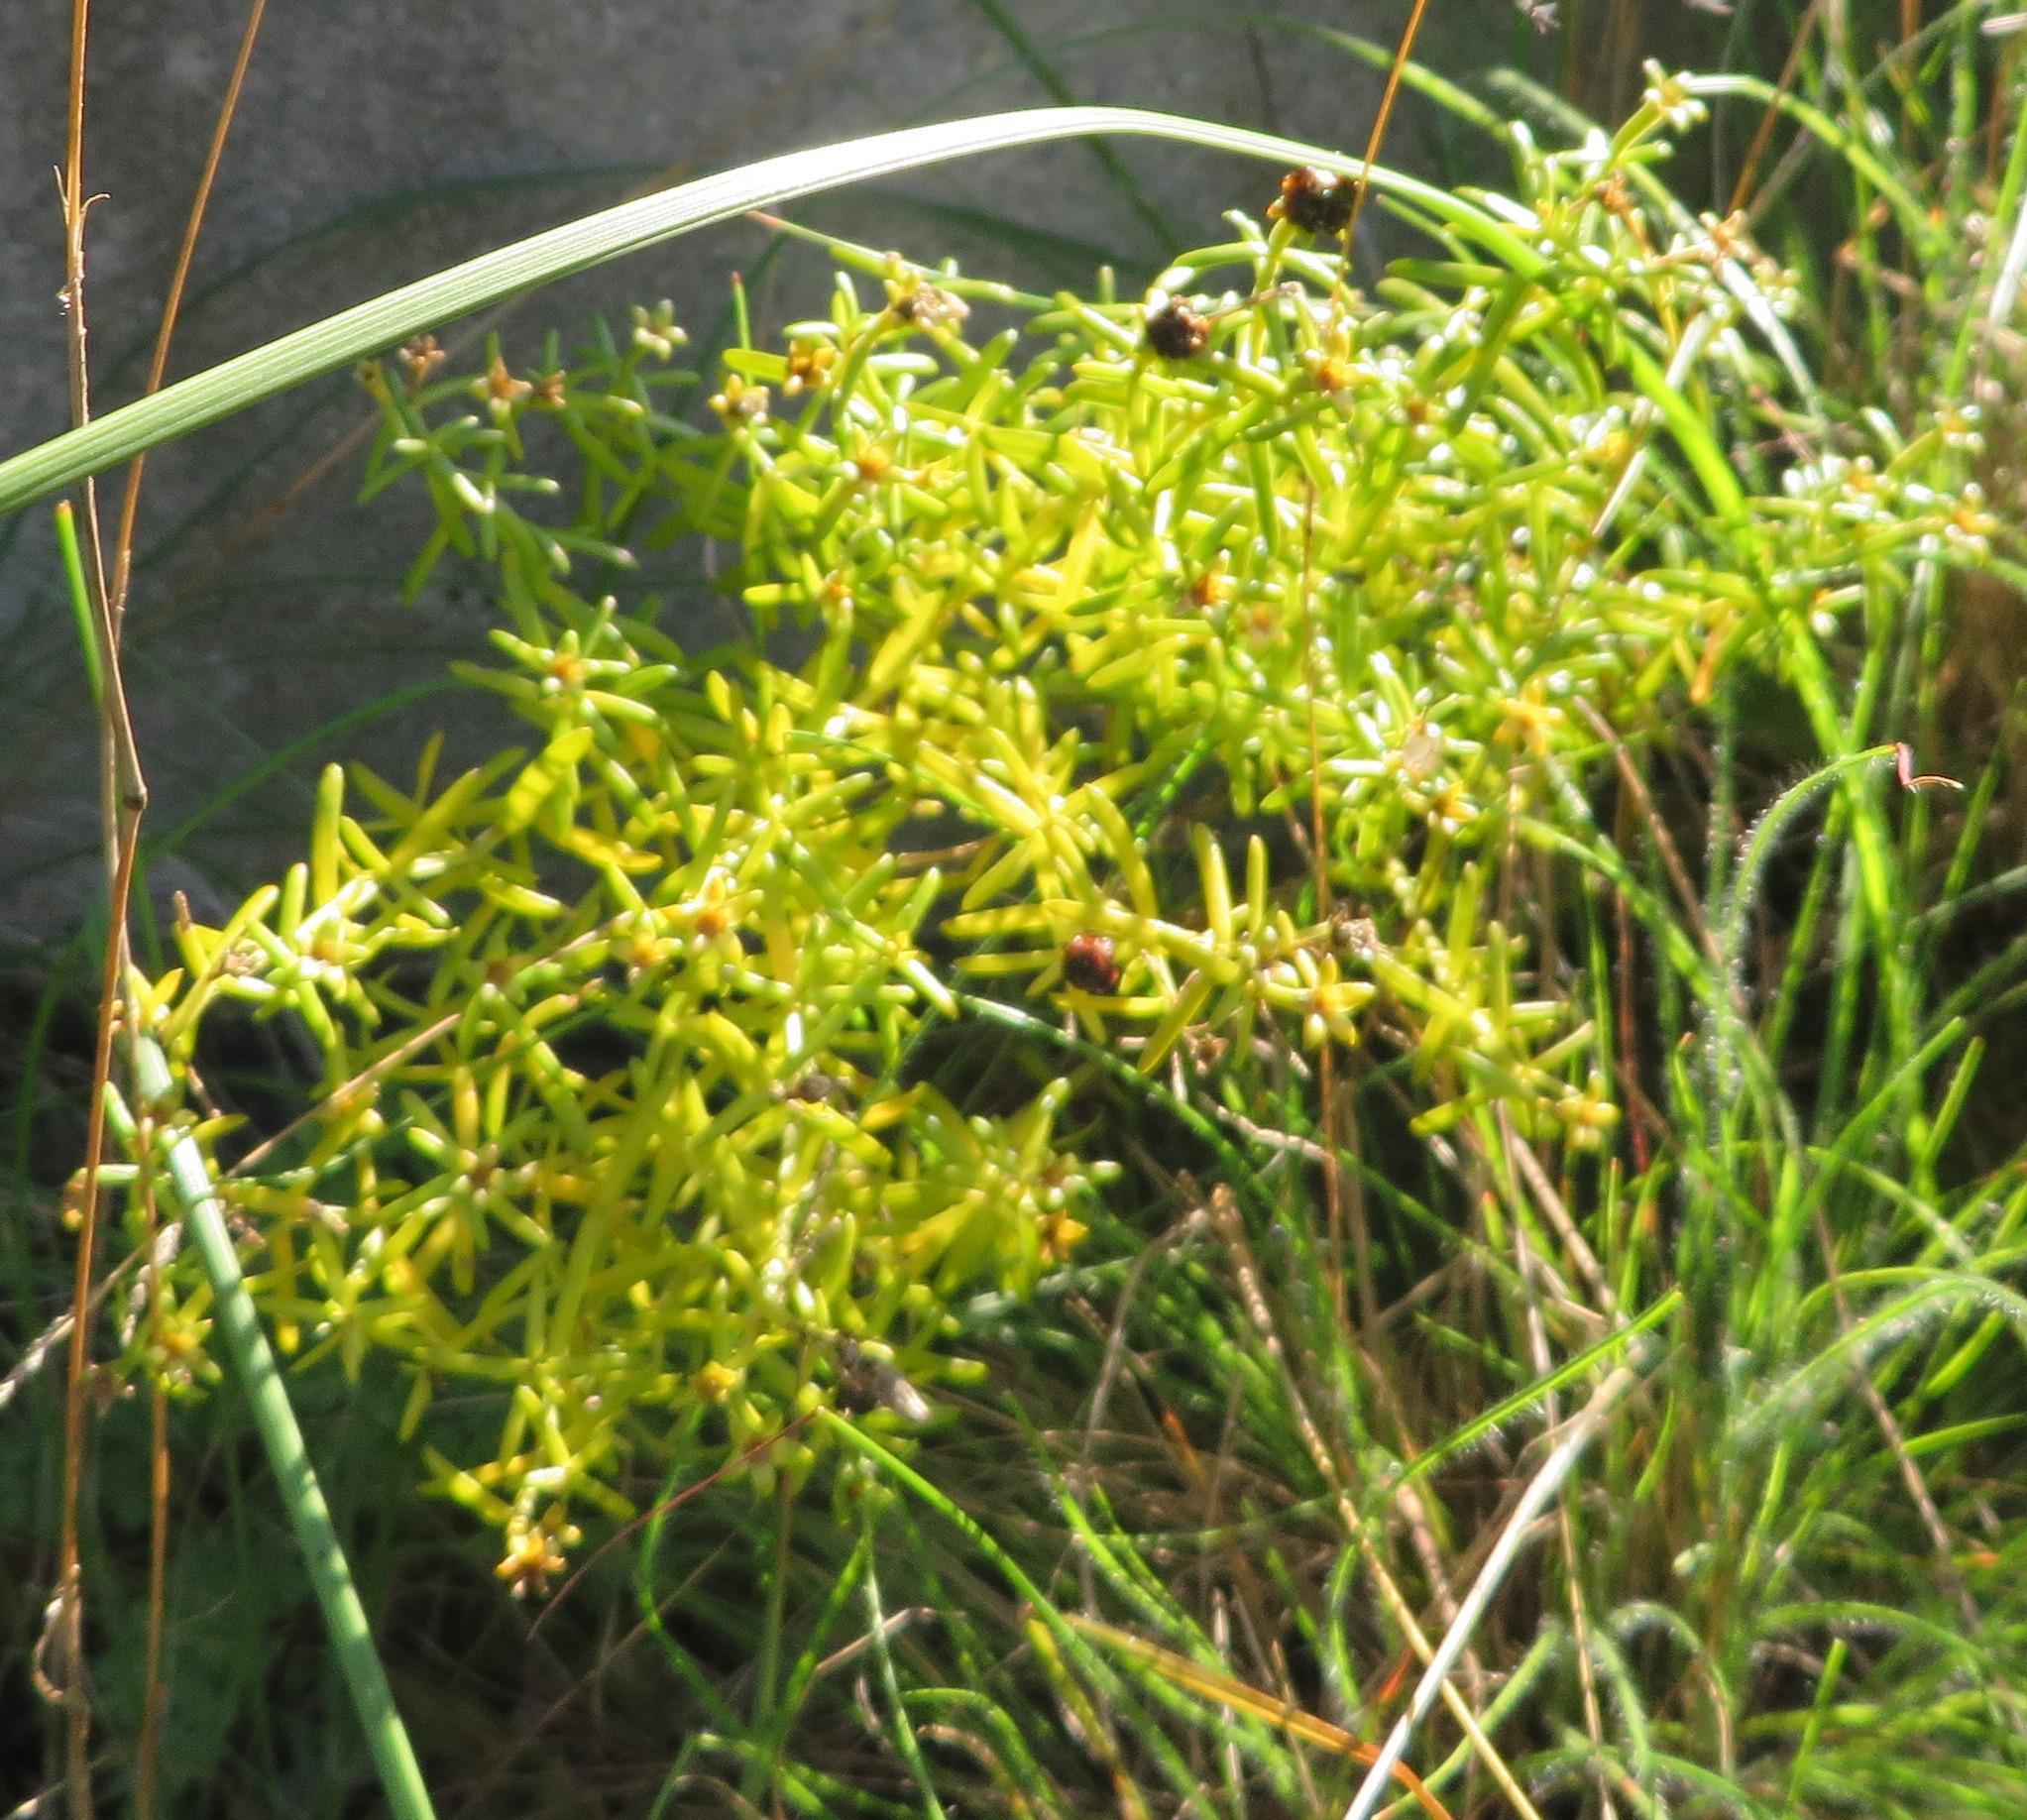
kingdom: Plantae
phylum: Tracheophyta
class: Magnoliopsida
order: Gentianales
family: Gentianaceae
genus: Chironia
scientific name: Chironia baccifera
